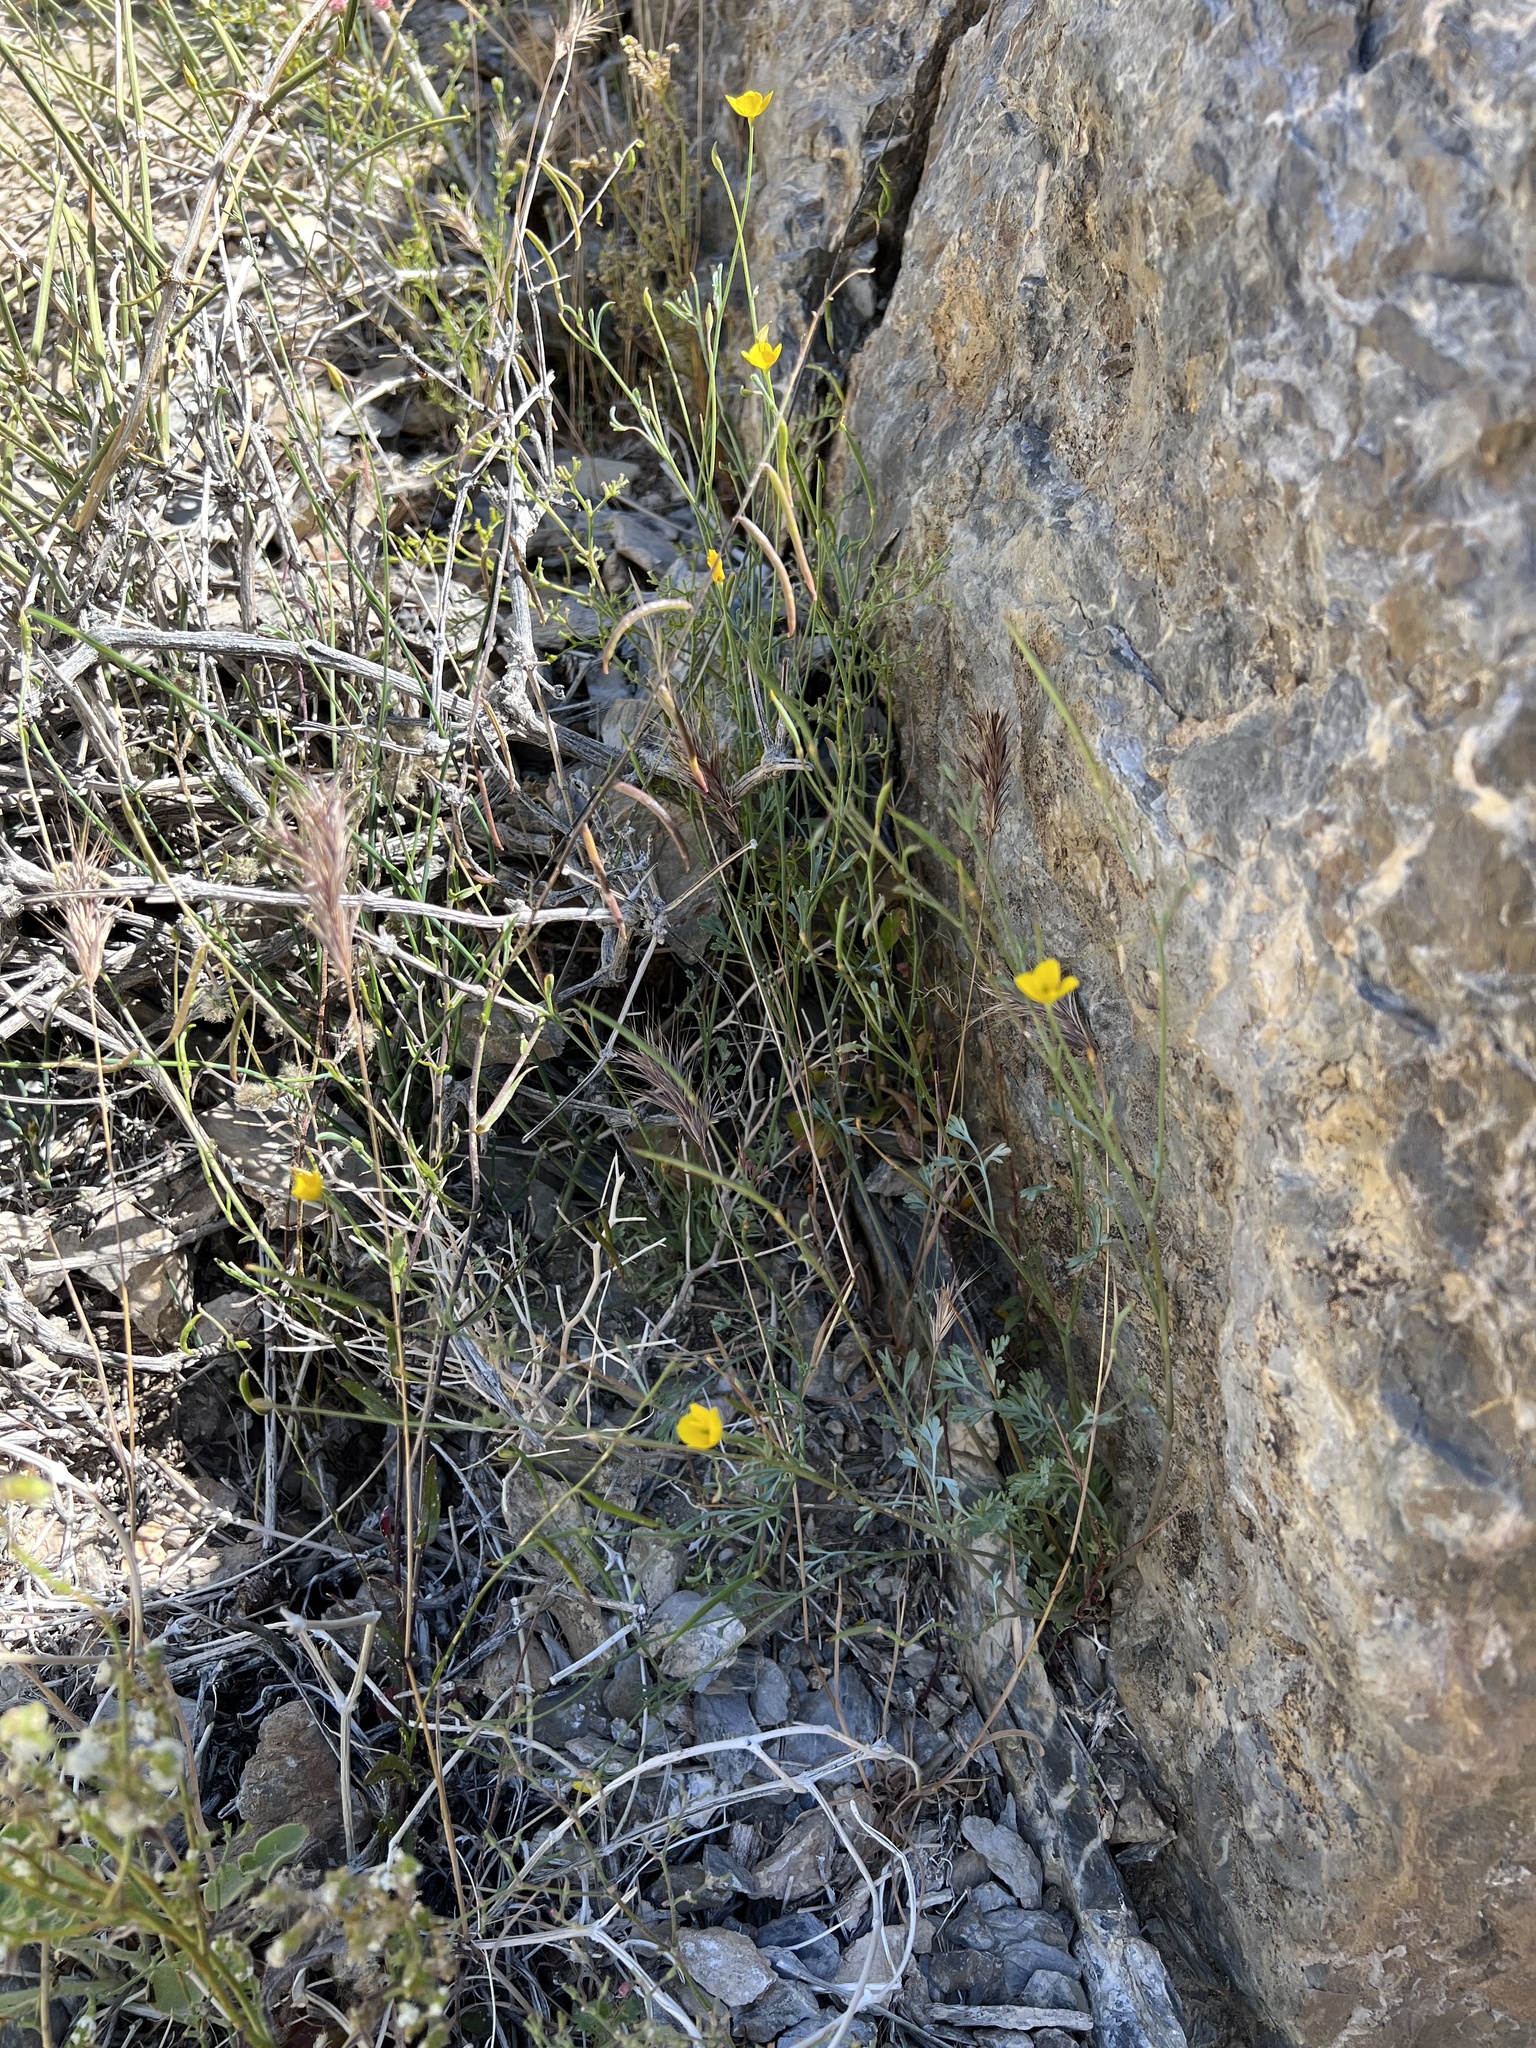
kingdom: Plantae
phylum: Tracheophyta
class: Magnoliopsida
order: Ranunculales
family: Papaveraceae
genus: Eschscholzia
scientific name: Eschscholzia minutiflora
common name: Small-flower california-poppy
